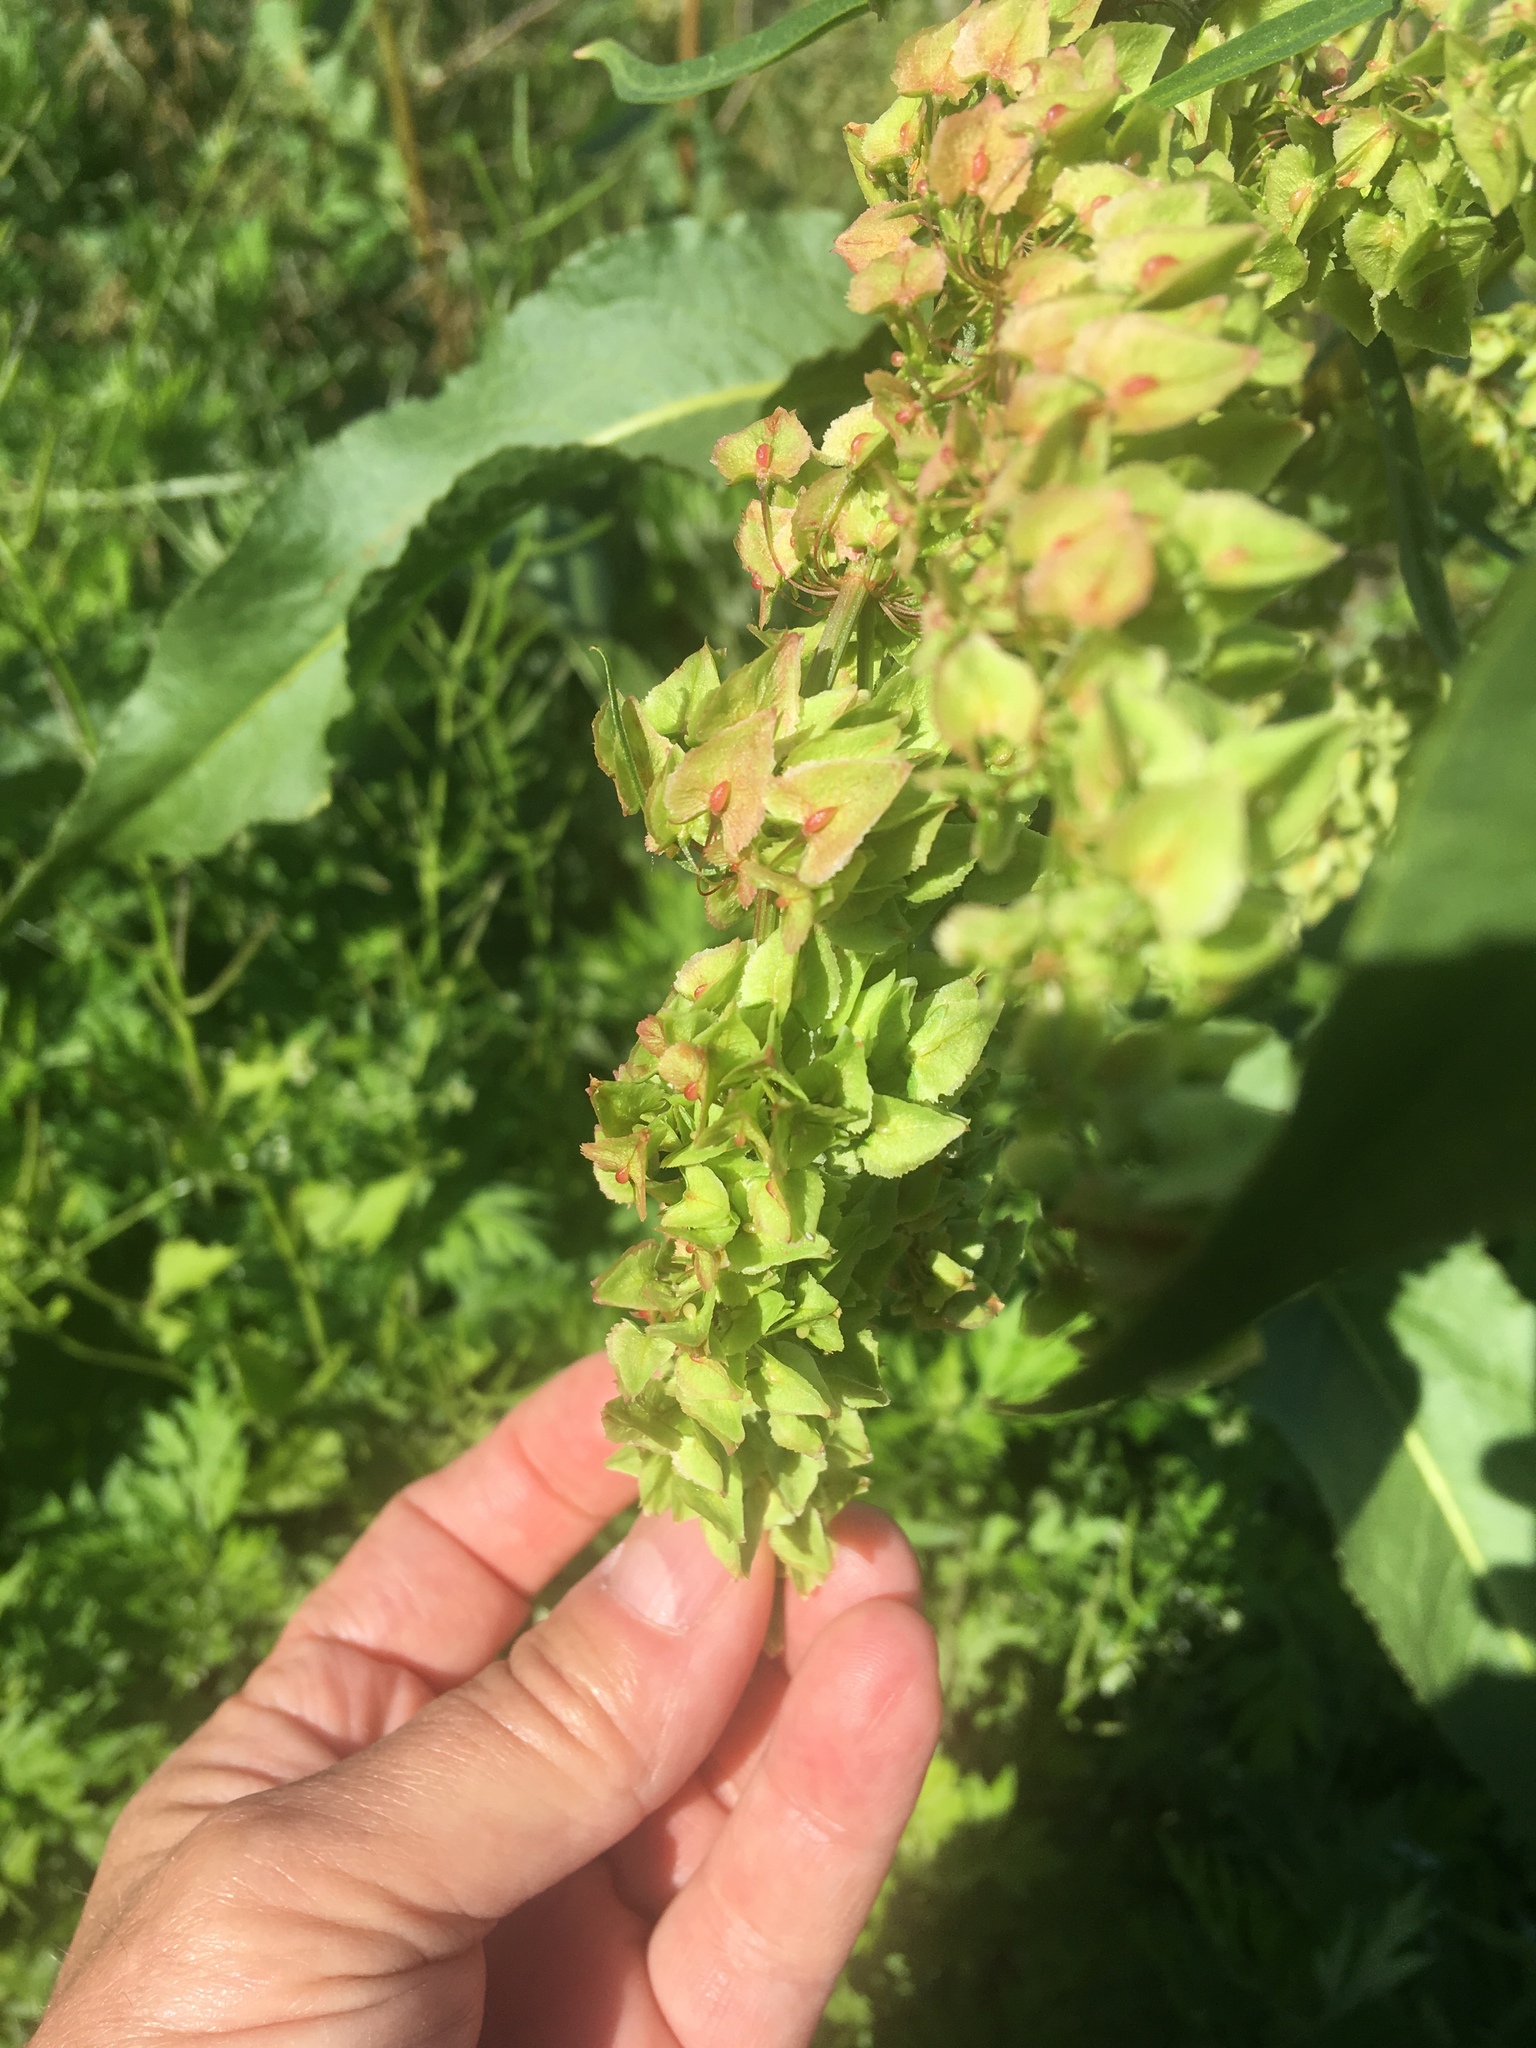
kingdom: Plantae
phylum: Tracheophyta
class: Magnoliopsida
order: Caryophyllales
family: Polygonaceae
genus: Rumex
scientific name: Rumex kerneri
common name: Kerner's dock
